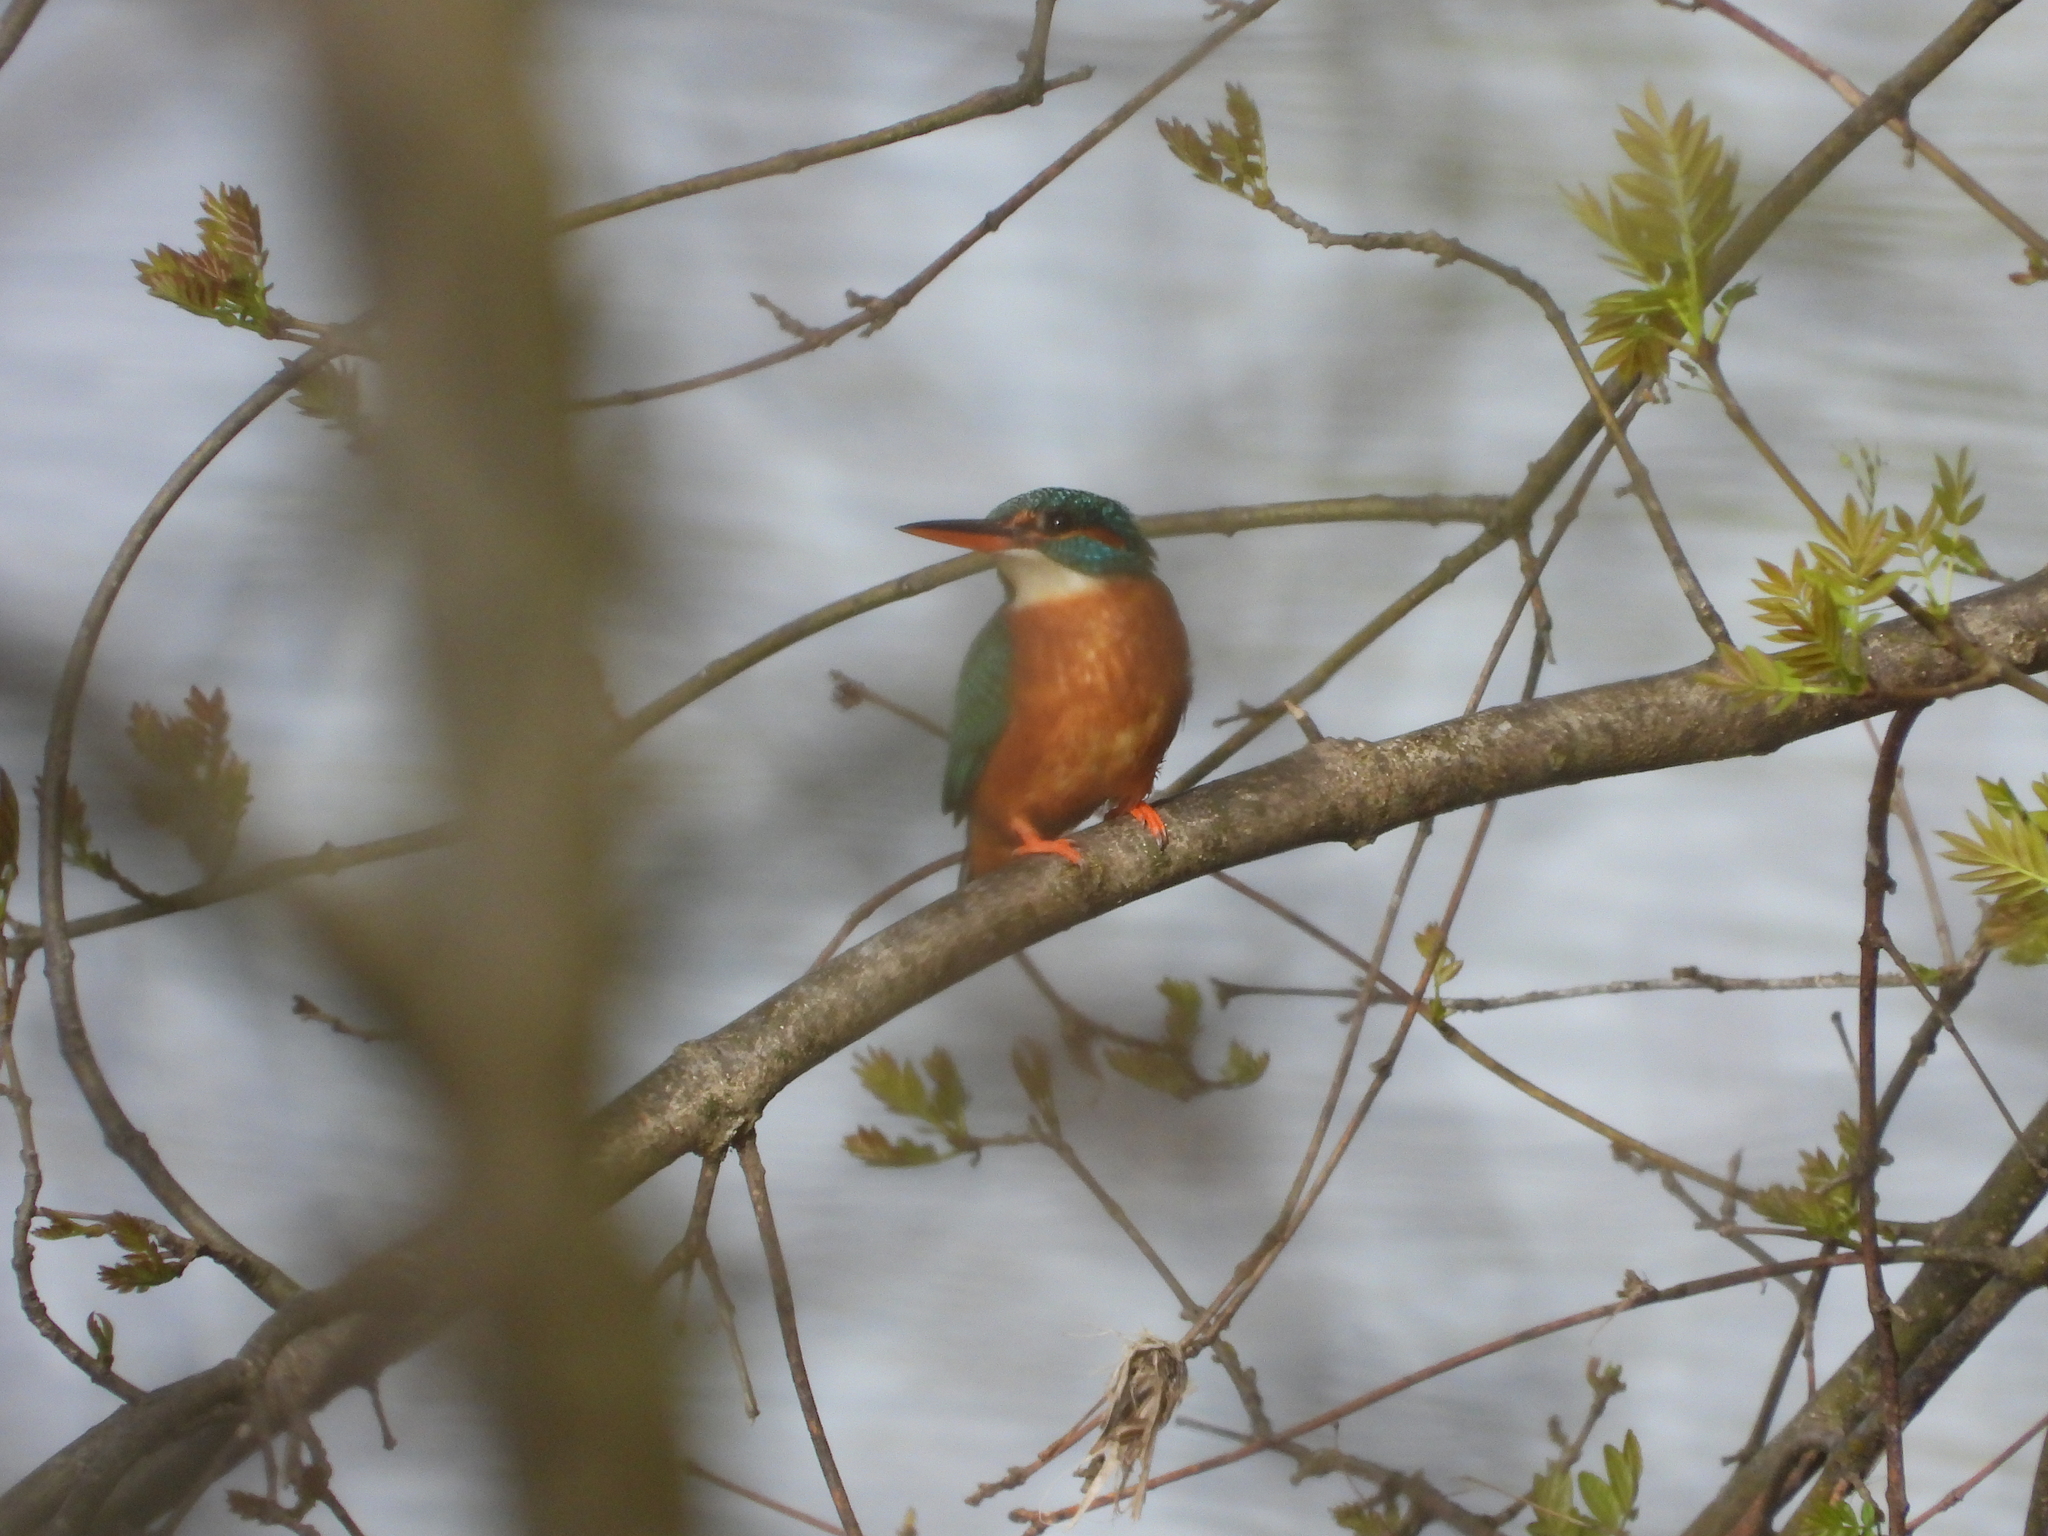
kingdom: Animalia
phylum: Chordata
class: Aves
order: Coraciiformes
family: Alcedinidae
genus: Alcedo
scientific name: Alcedo atthis
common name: Common kingfisher
